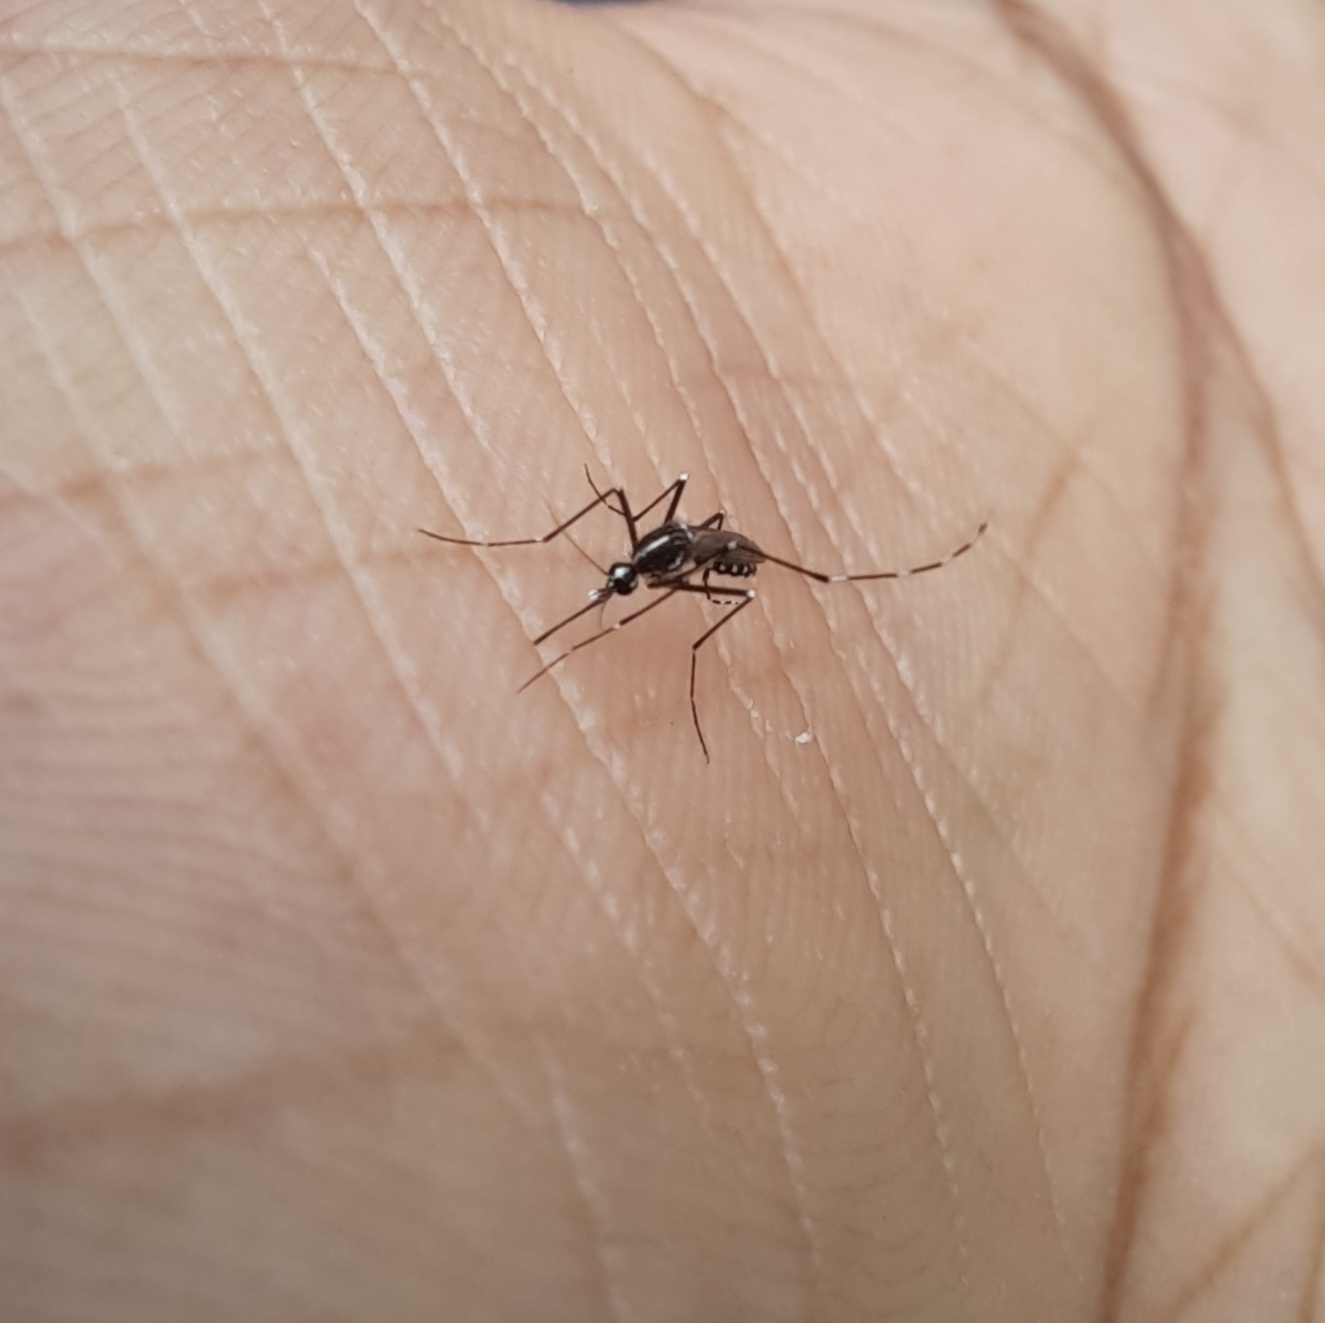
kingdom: Animalia
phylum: Arthropoda
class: Insecta
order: Diptera
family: Culicidae
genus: Aedes
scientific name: Aedes albopictus
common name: Tiger mosquito
